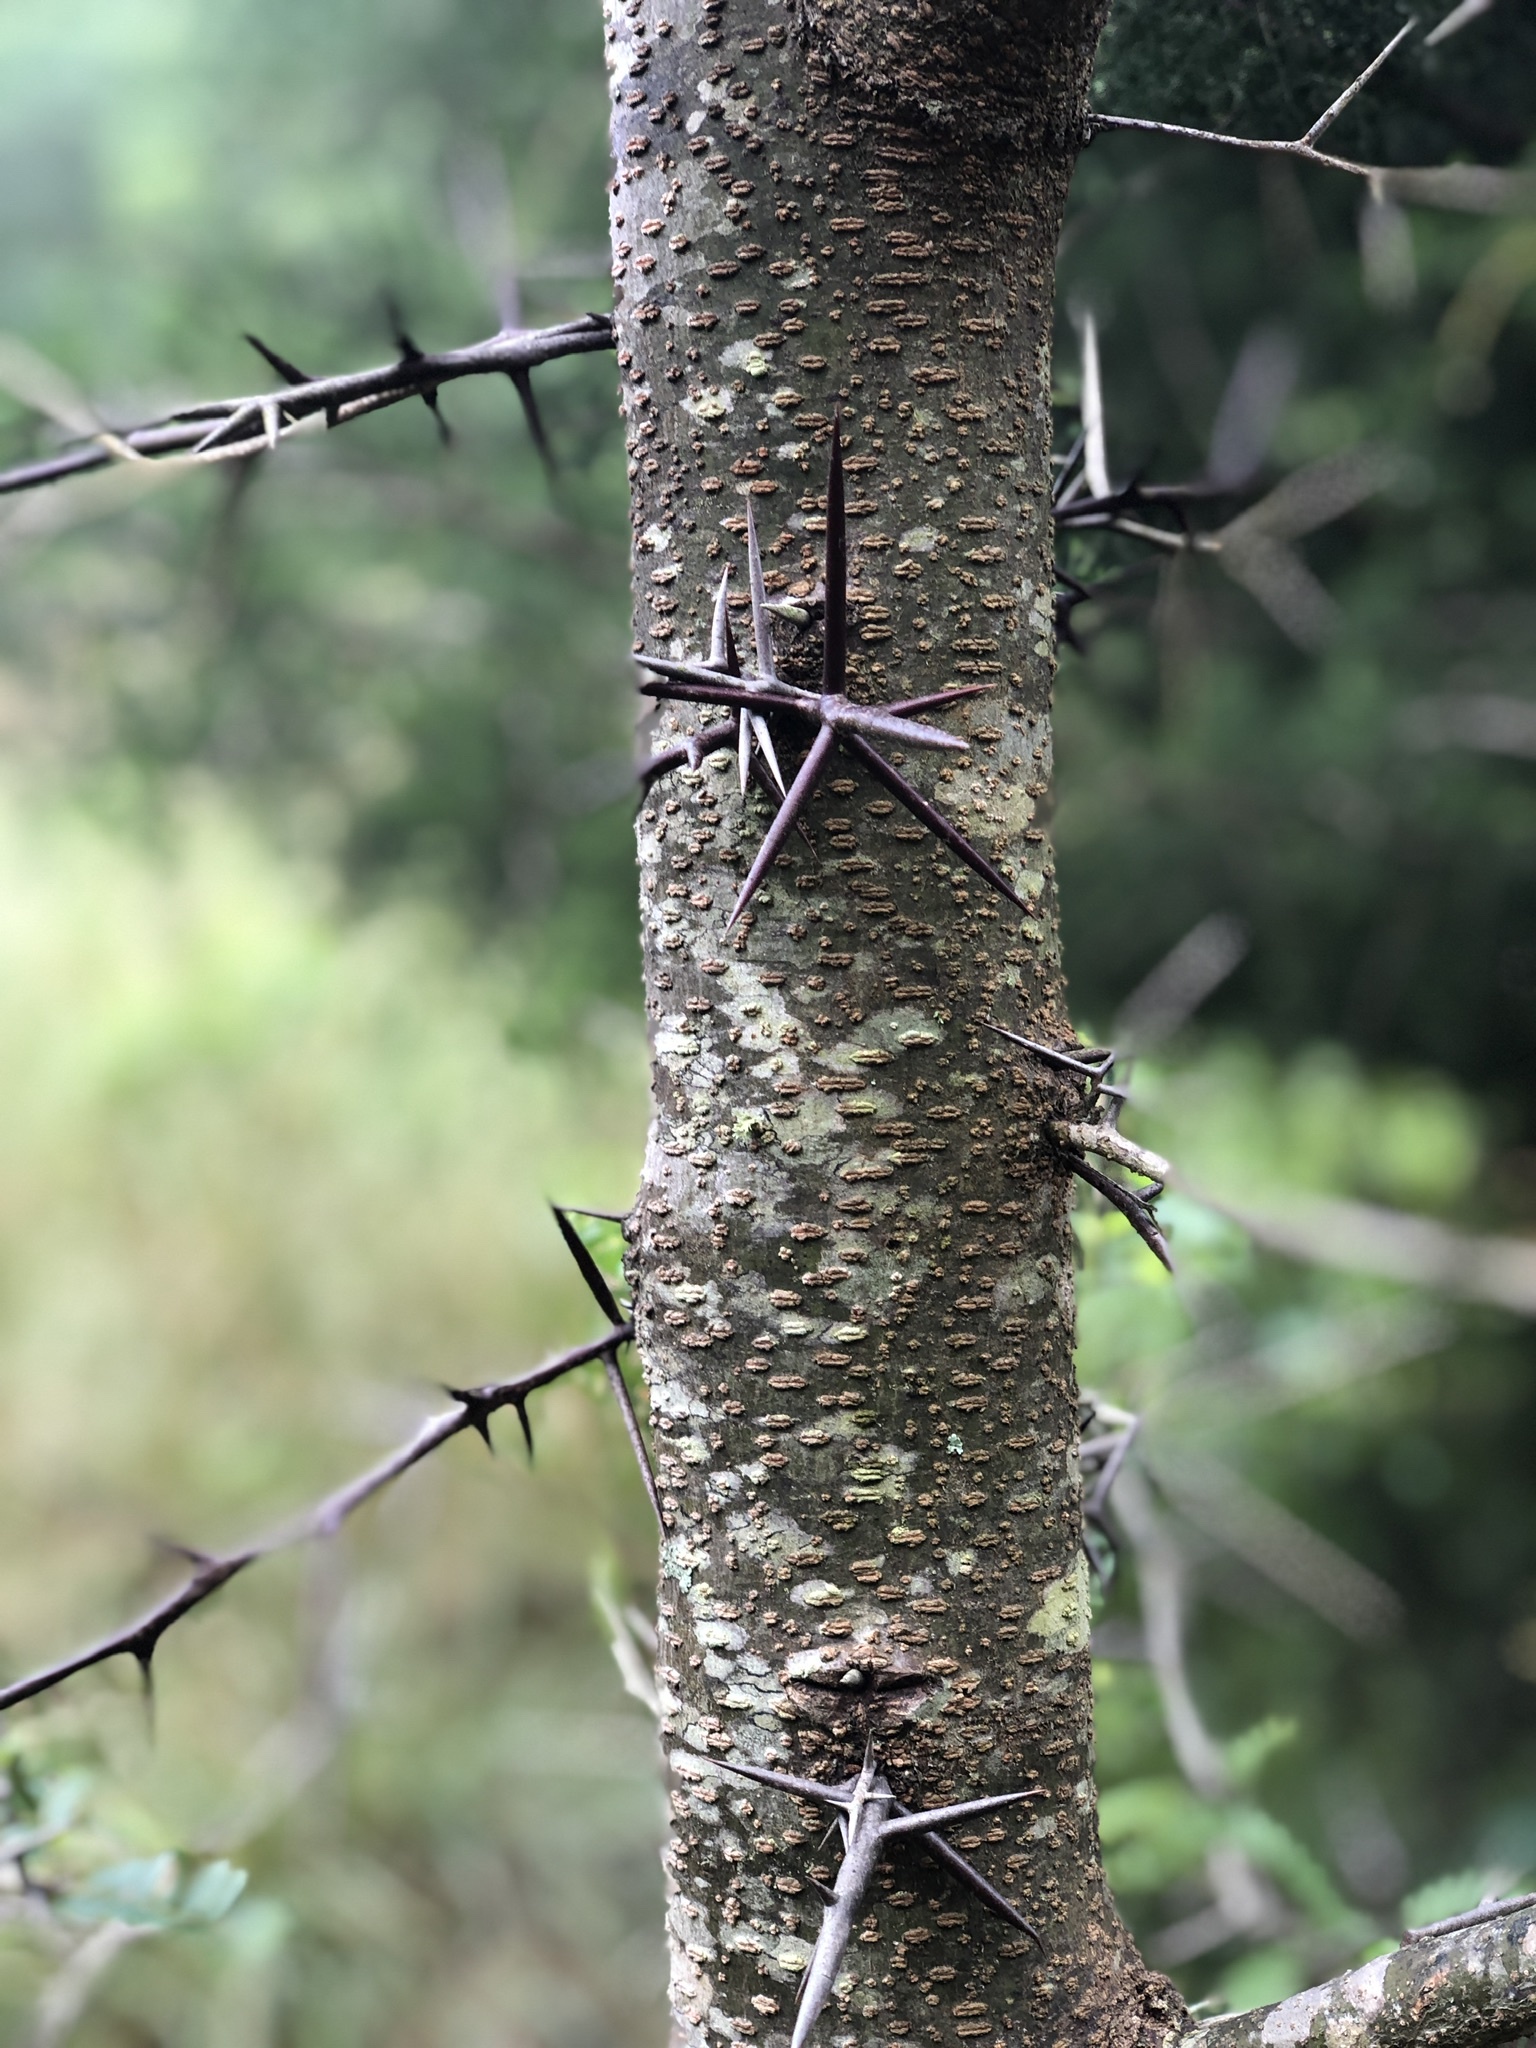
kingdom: Plantae
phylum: Tracheophyta
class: Magnoliopsida
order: Fabales
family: Fabaceae
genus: Gleditsia
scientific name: Gleditsia triacanthos
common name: Common honeylocust
